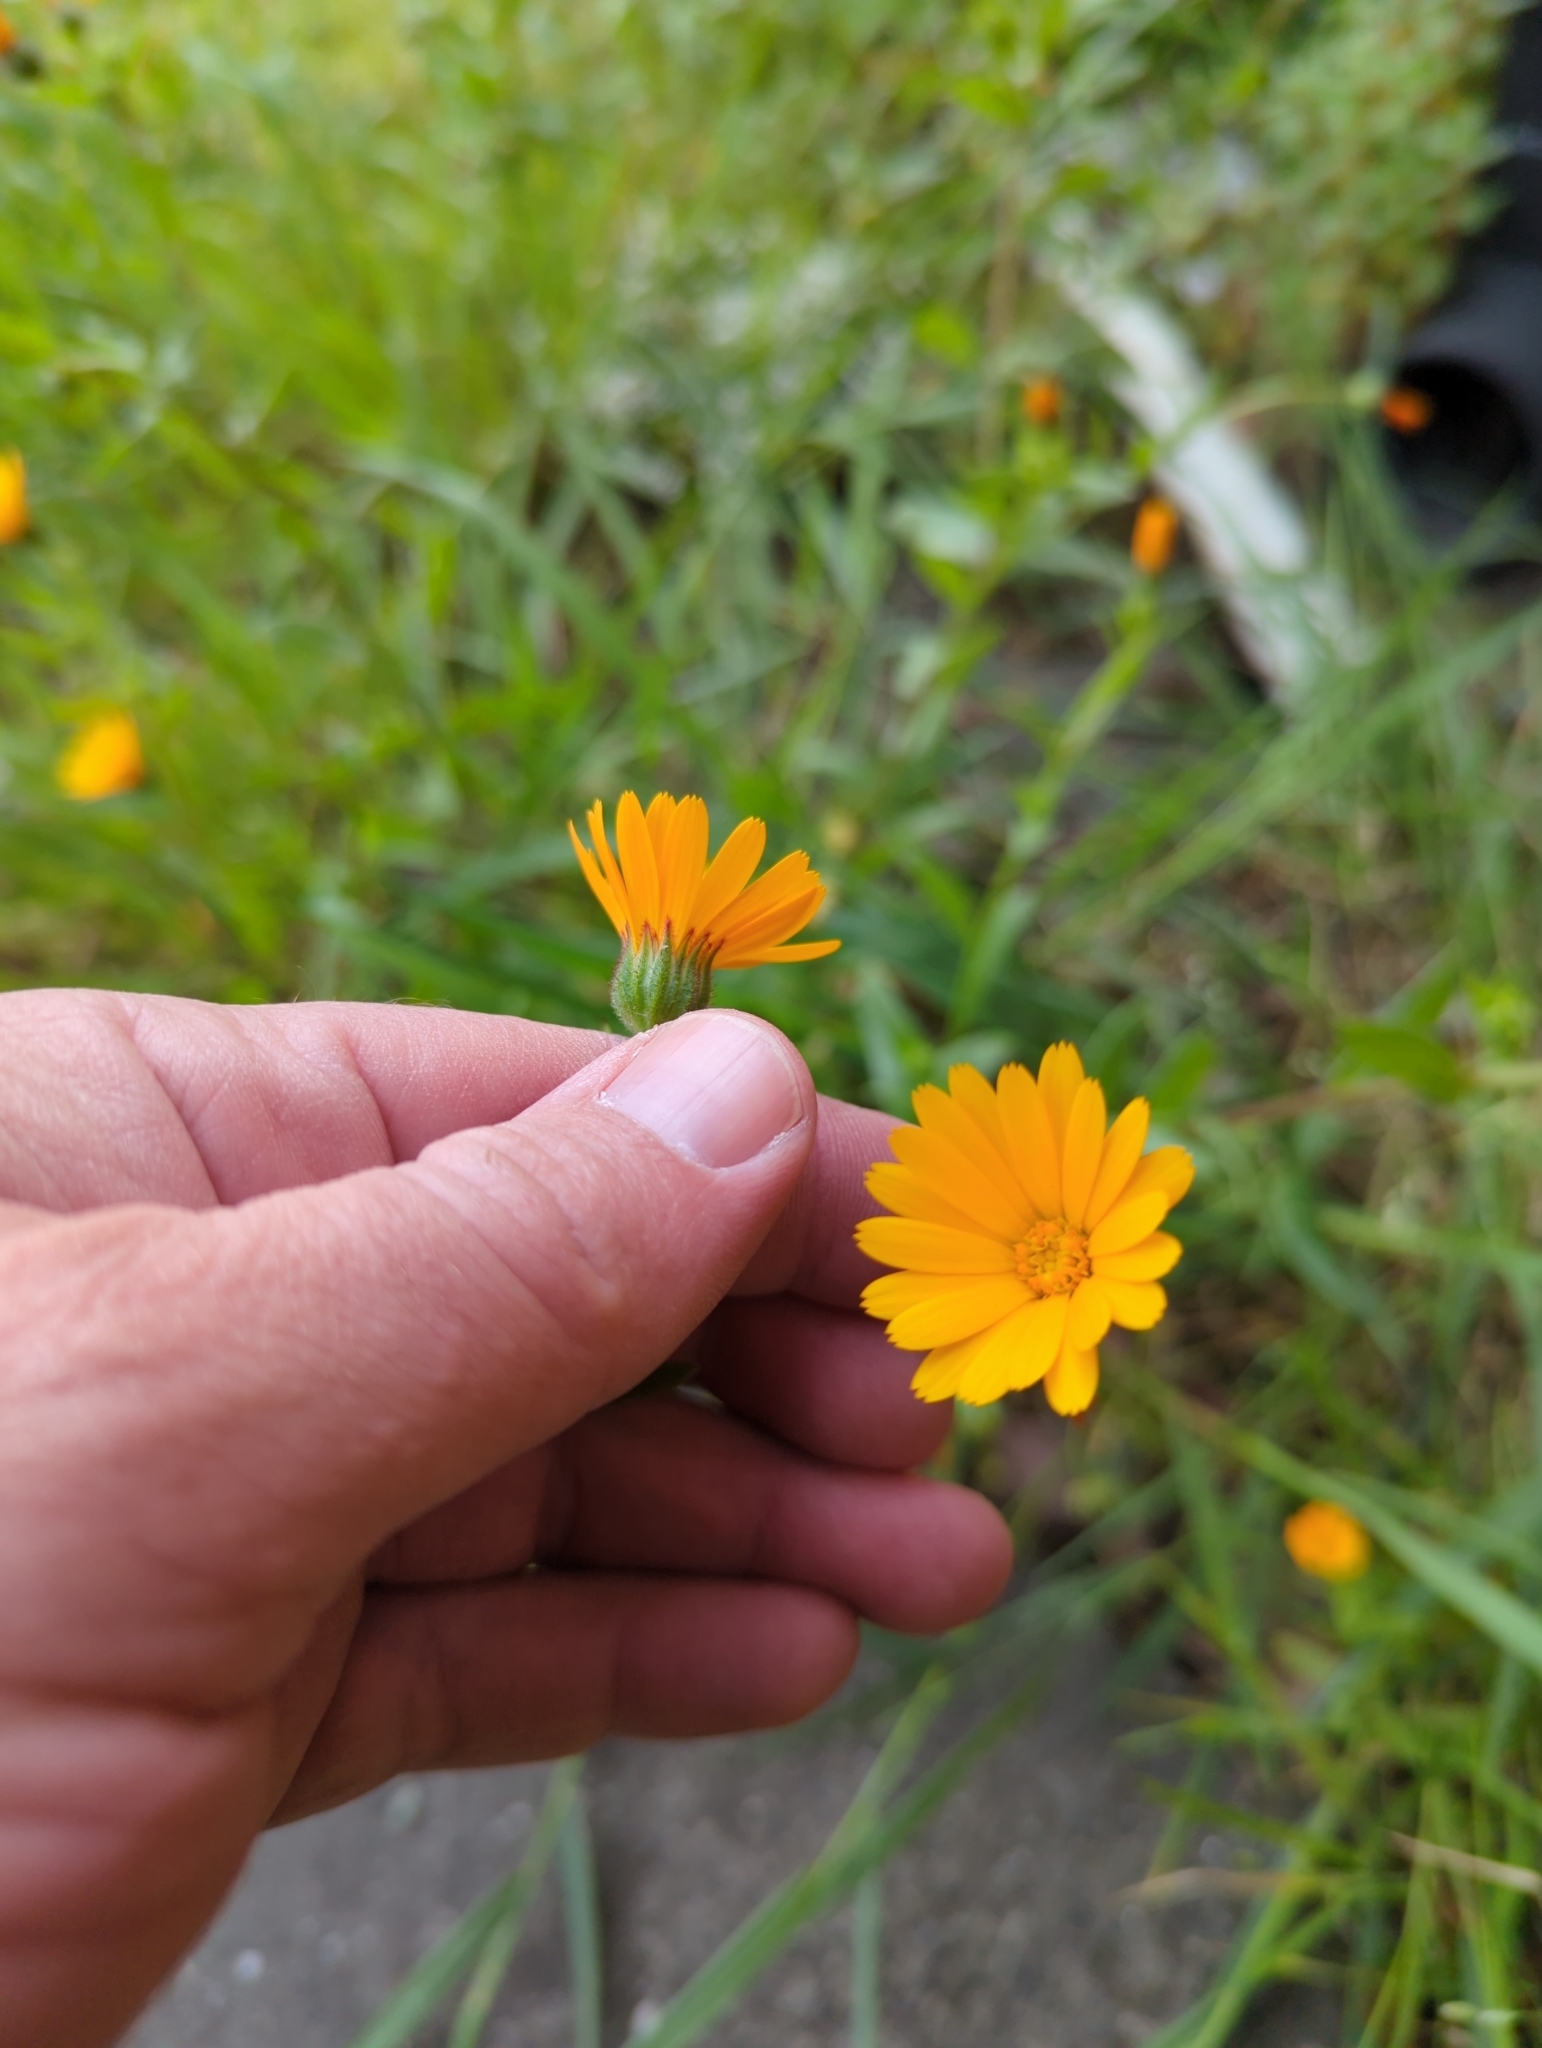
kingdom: Plantae
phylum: Tracheophyta
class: Magnoliopsida
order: Asterales
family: Asteraceae
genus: Calendula
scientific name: Calendula arvensis
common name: Field marigold
